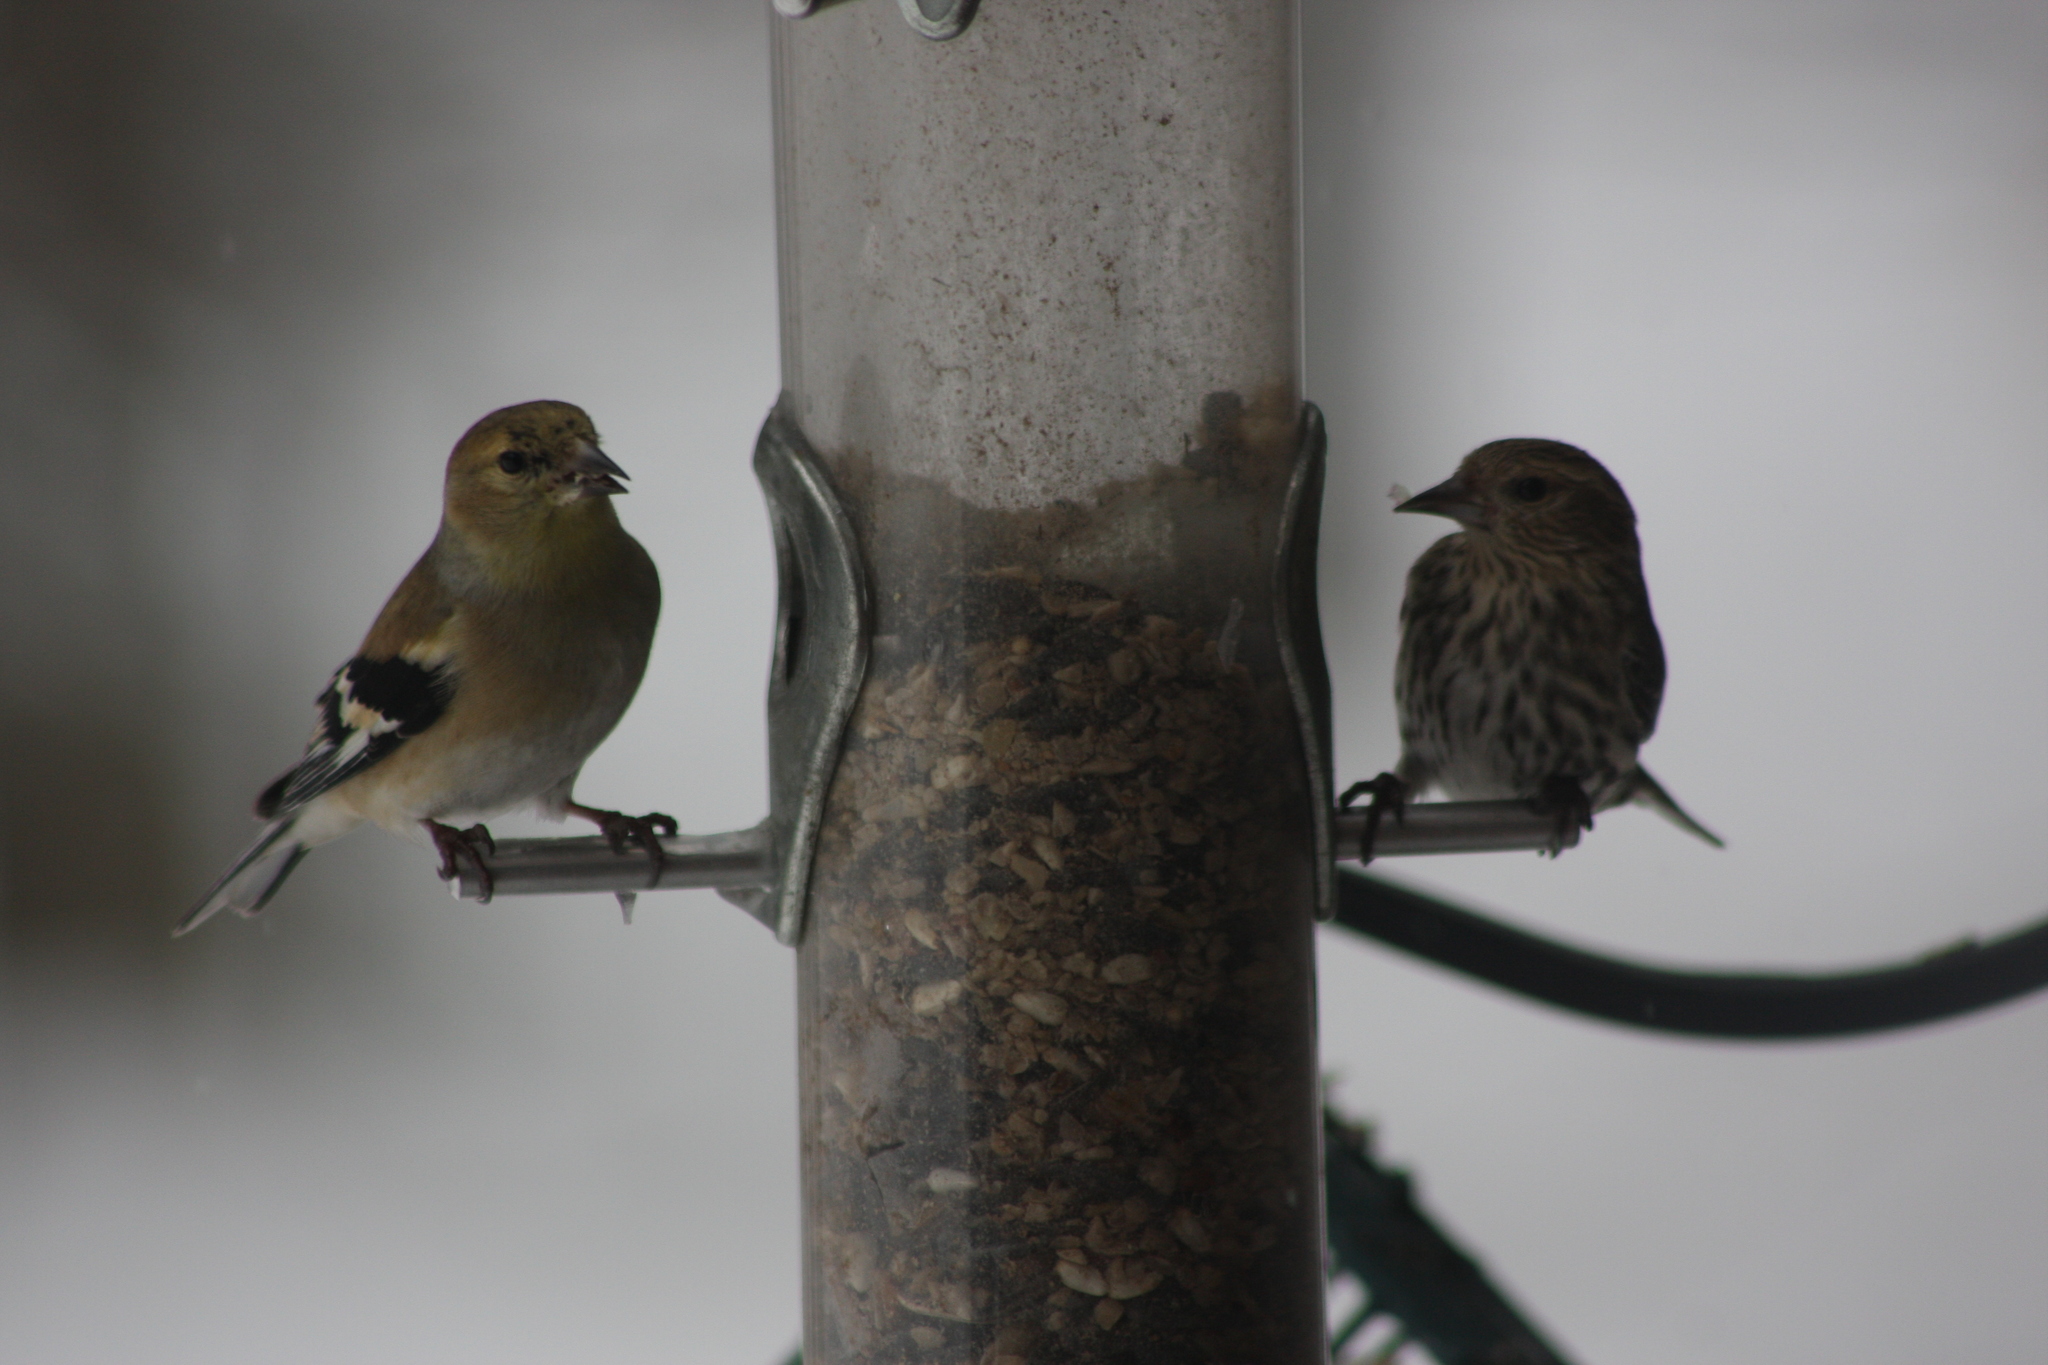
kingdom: Animalia
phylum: Chordata
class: Aves
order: Passeriformes
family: Fringillidae
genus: Spinus
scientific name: Spinus tristis
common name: American goldfinch
